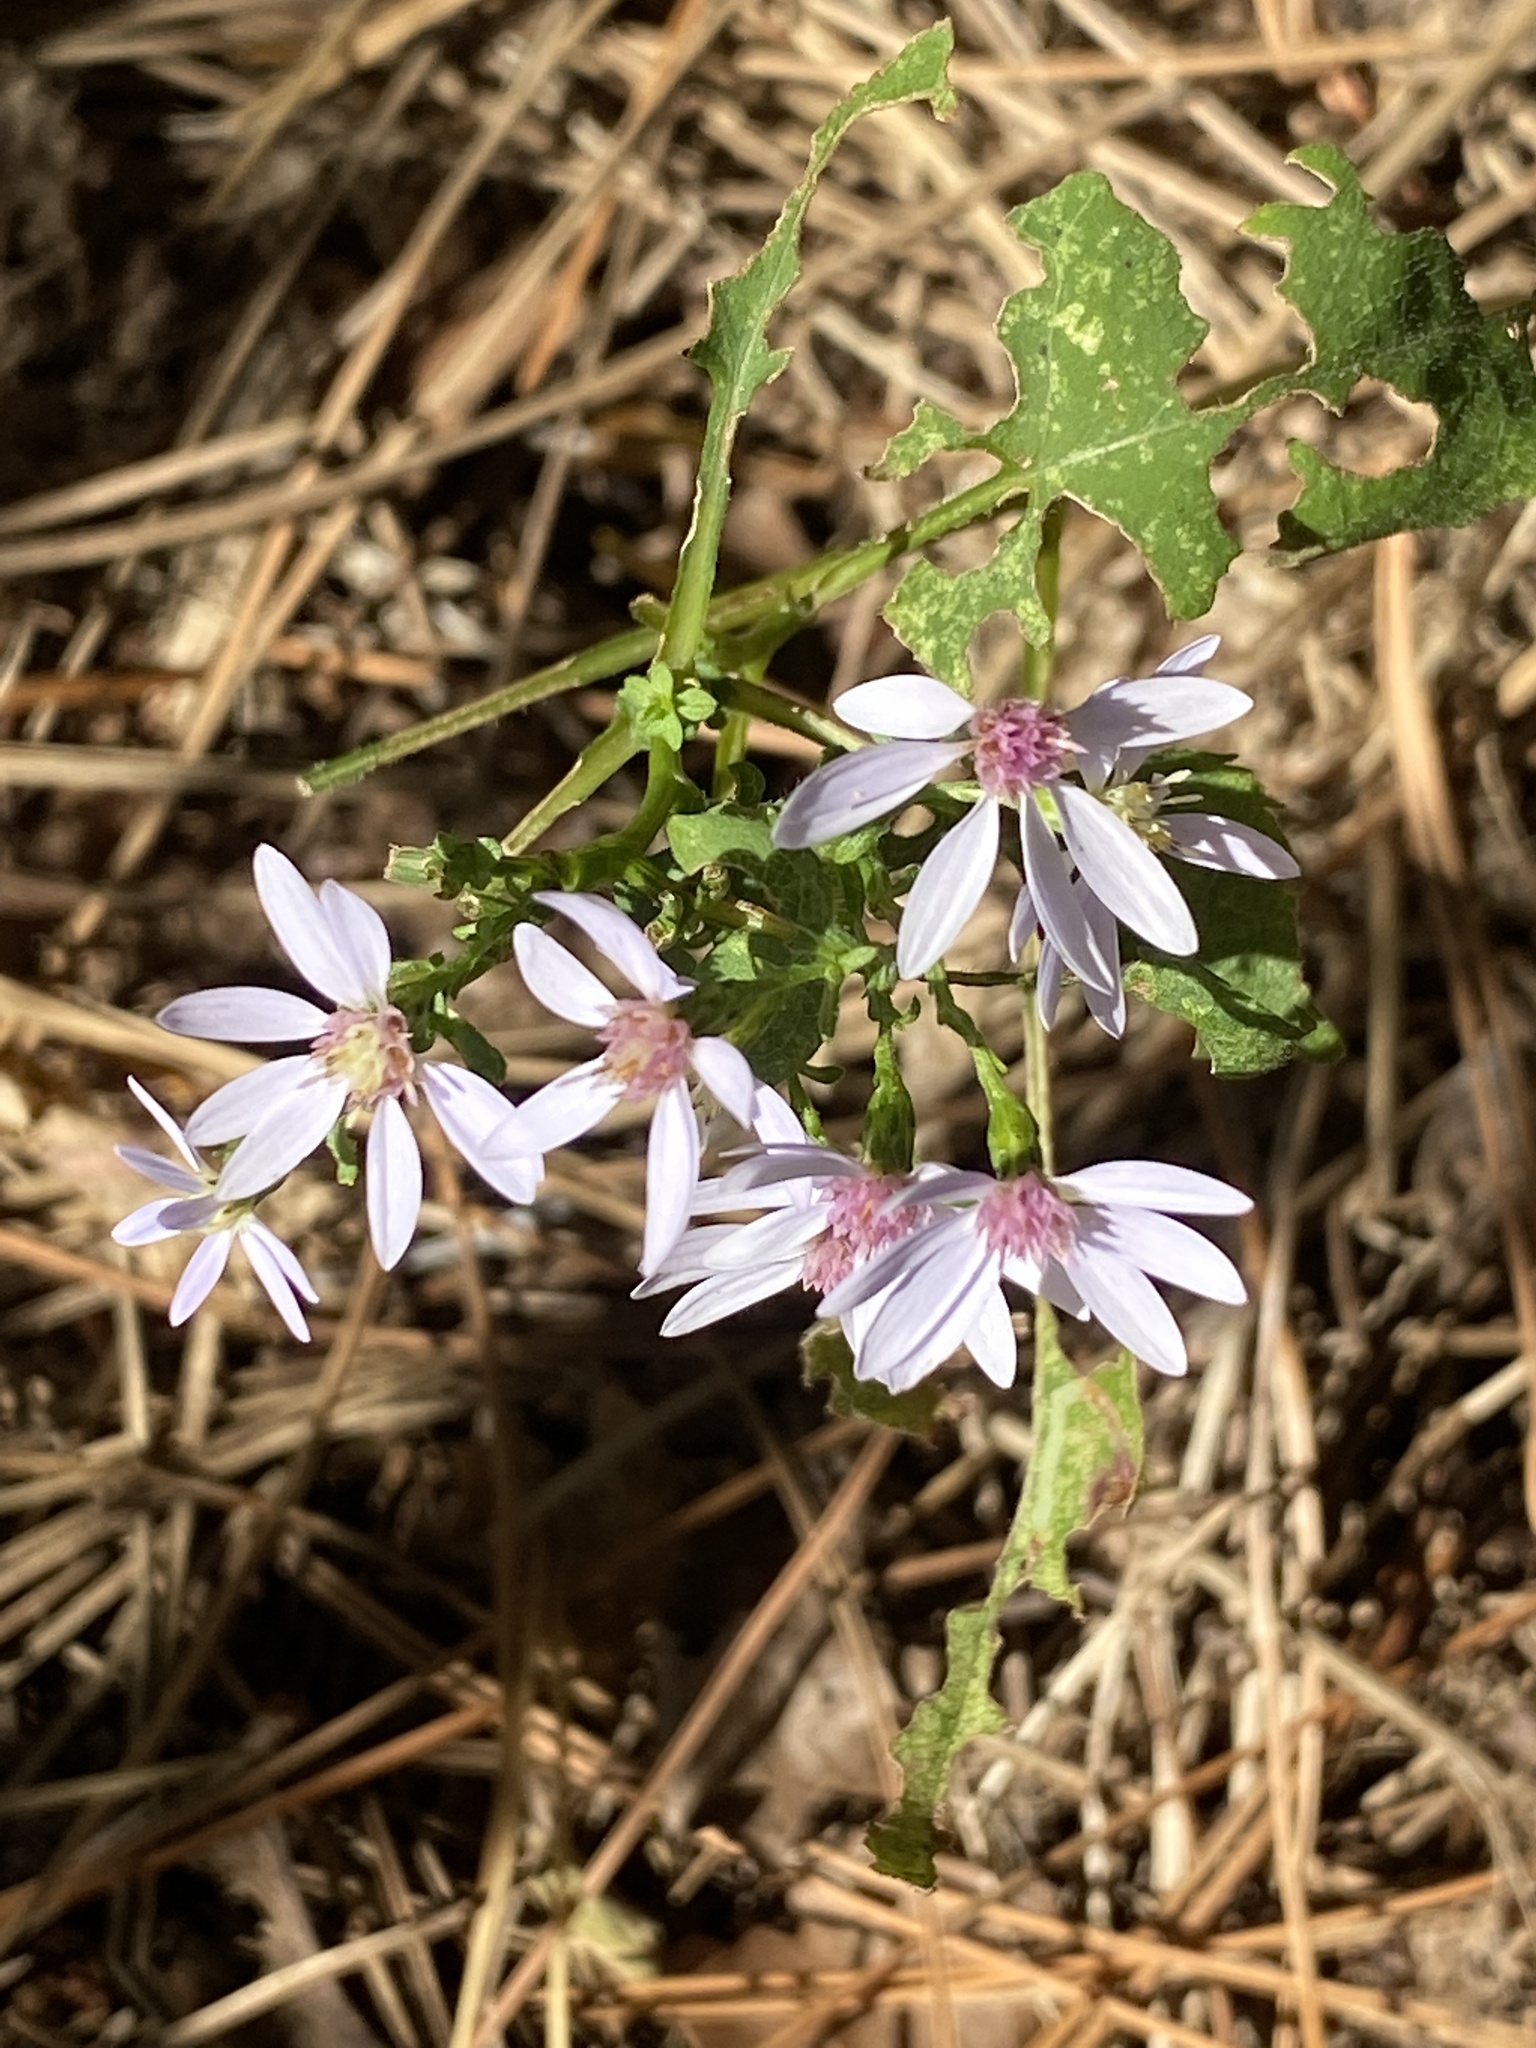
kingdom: Plantae
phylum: Tracheophyta
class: Magnoliopsida
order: Asterales
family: Asteraceae
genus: Symphyotrichum
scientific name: Symphyotrichum cordifolium
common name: Beeweed
